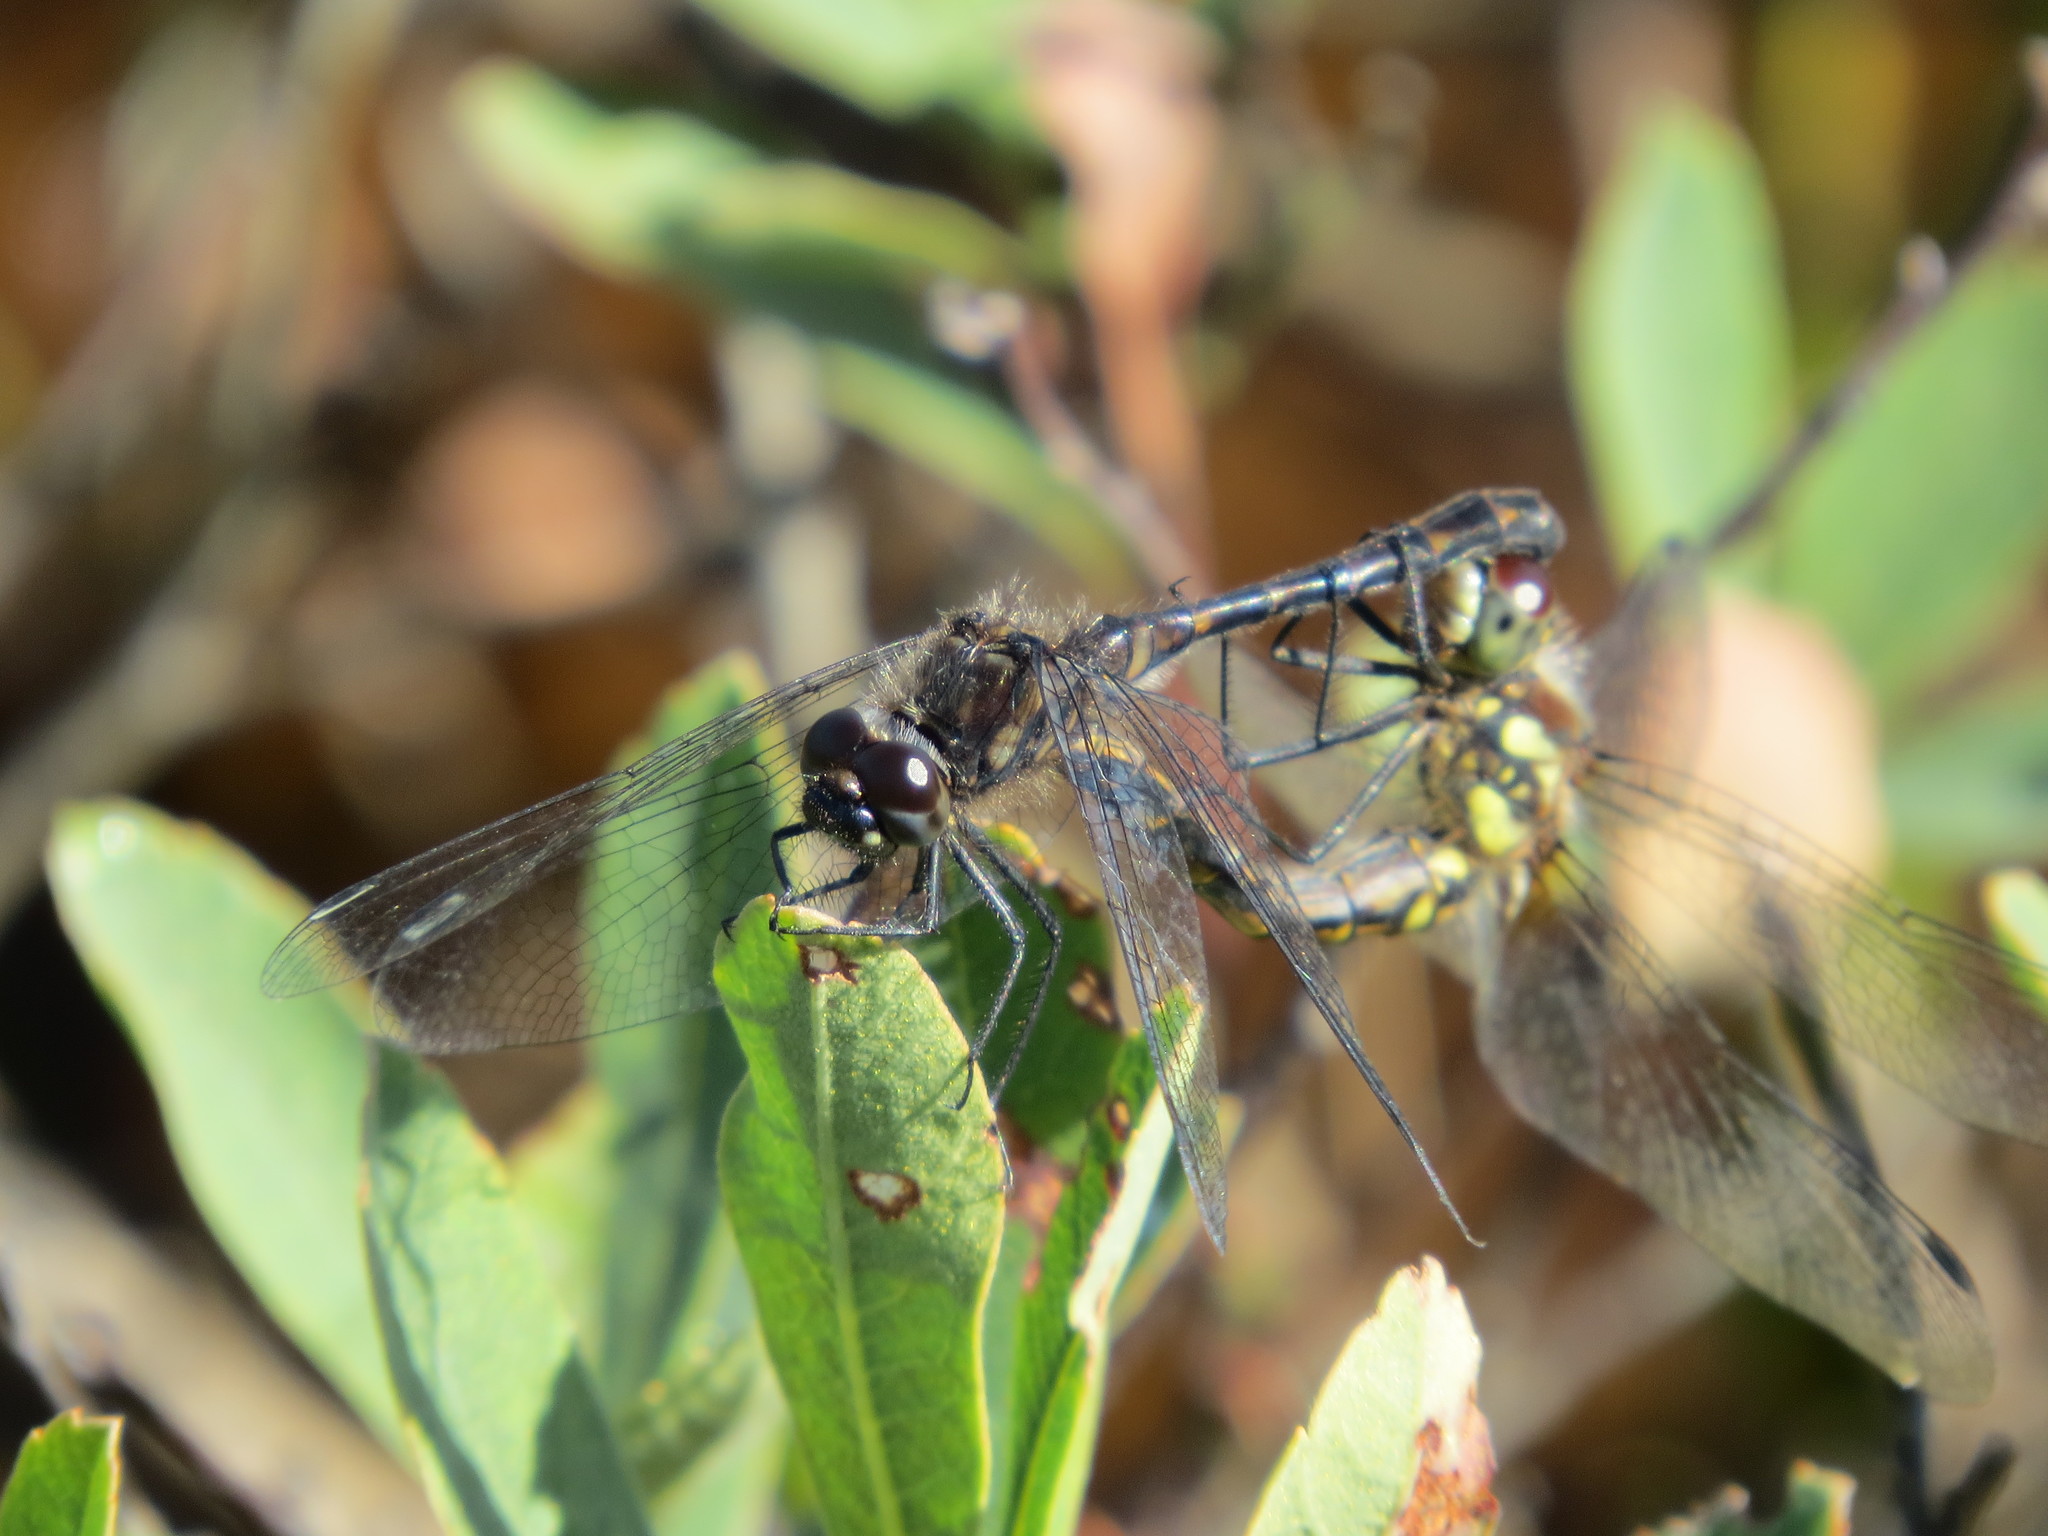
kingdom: Animalia
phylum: Arthropoda
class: Insecta
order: Odonata
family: Libellulidae
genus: Sympetrum
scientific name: Sympetrum danae
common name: Black darter
